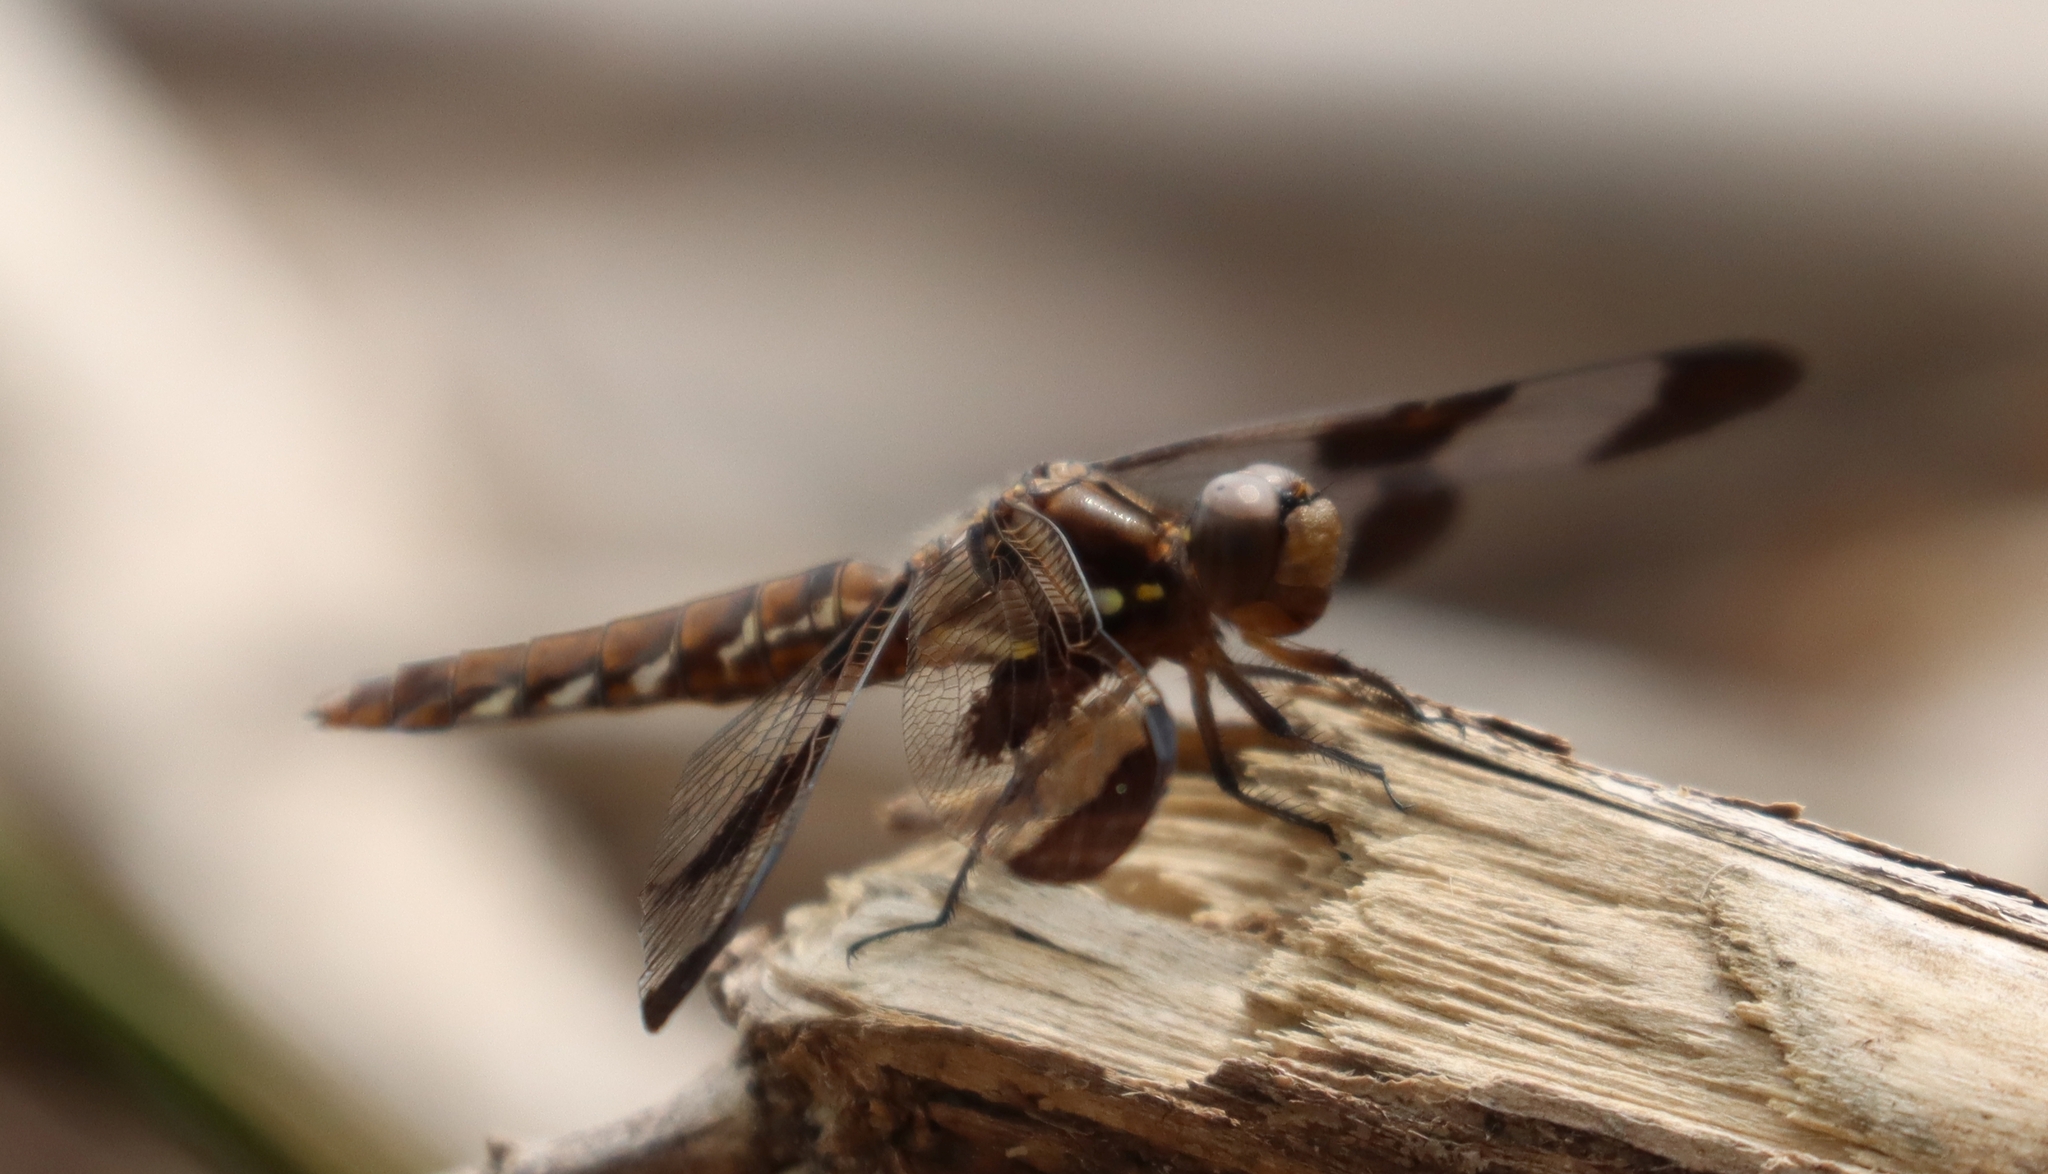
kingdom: Animalia
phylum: Arthropoda
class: Insecta
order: Odonata
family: Libellulidae
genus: Plathemis
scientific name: Plathemis lydia
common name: Common whitetail
